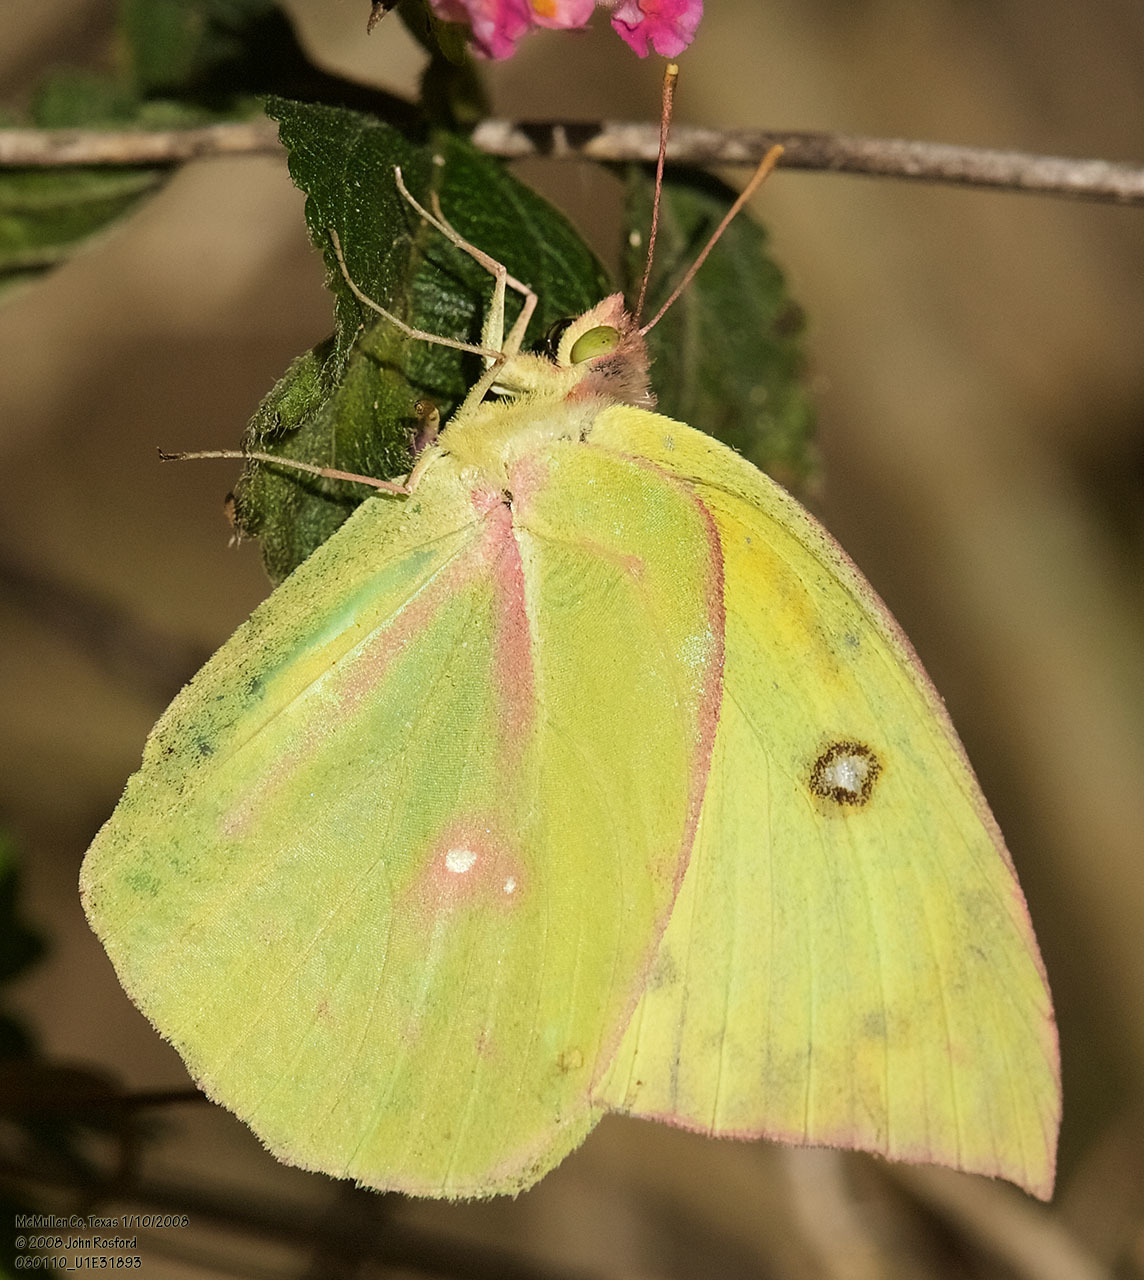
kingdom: Animalia
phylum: Arthropoda
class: Insecta
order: Lepidoptera
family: Pieridae
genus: Zerene
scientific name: Zerene cesonia
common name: Southern dogface
